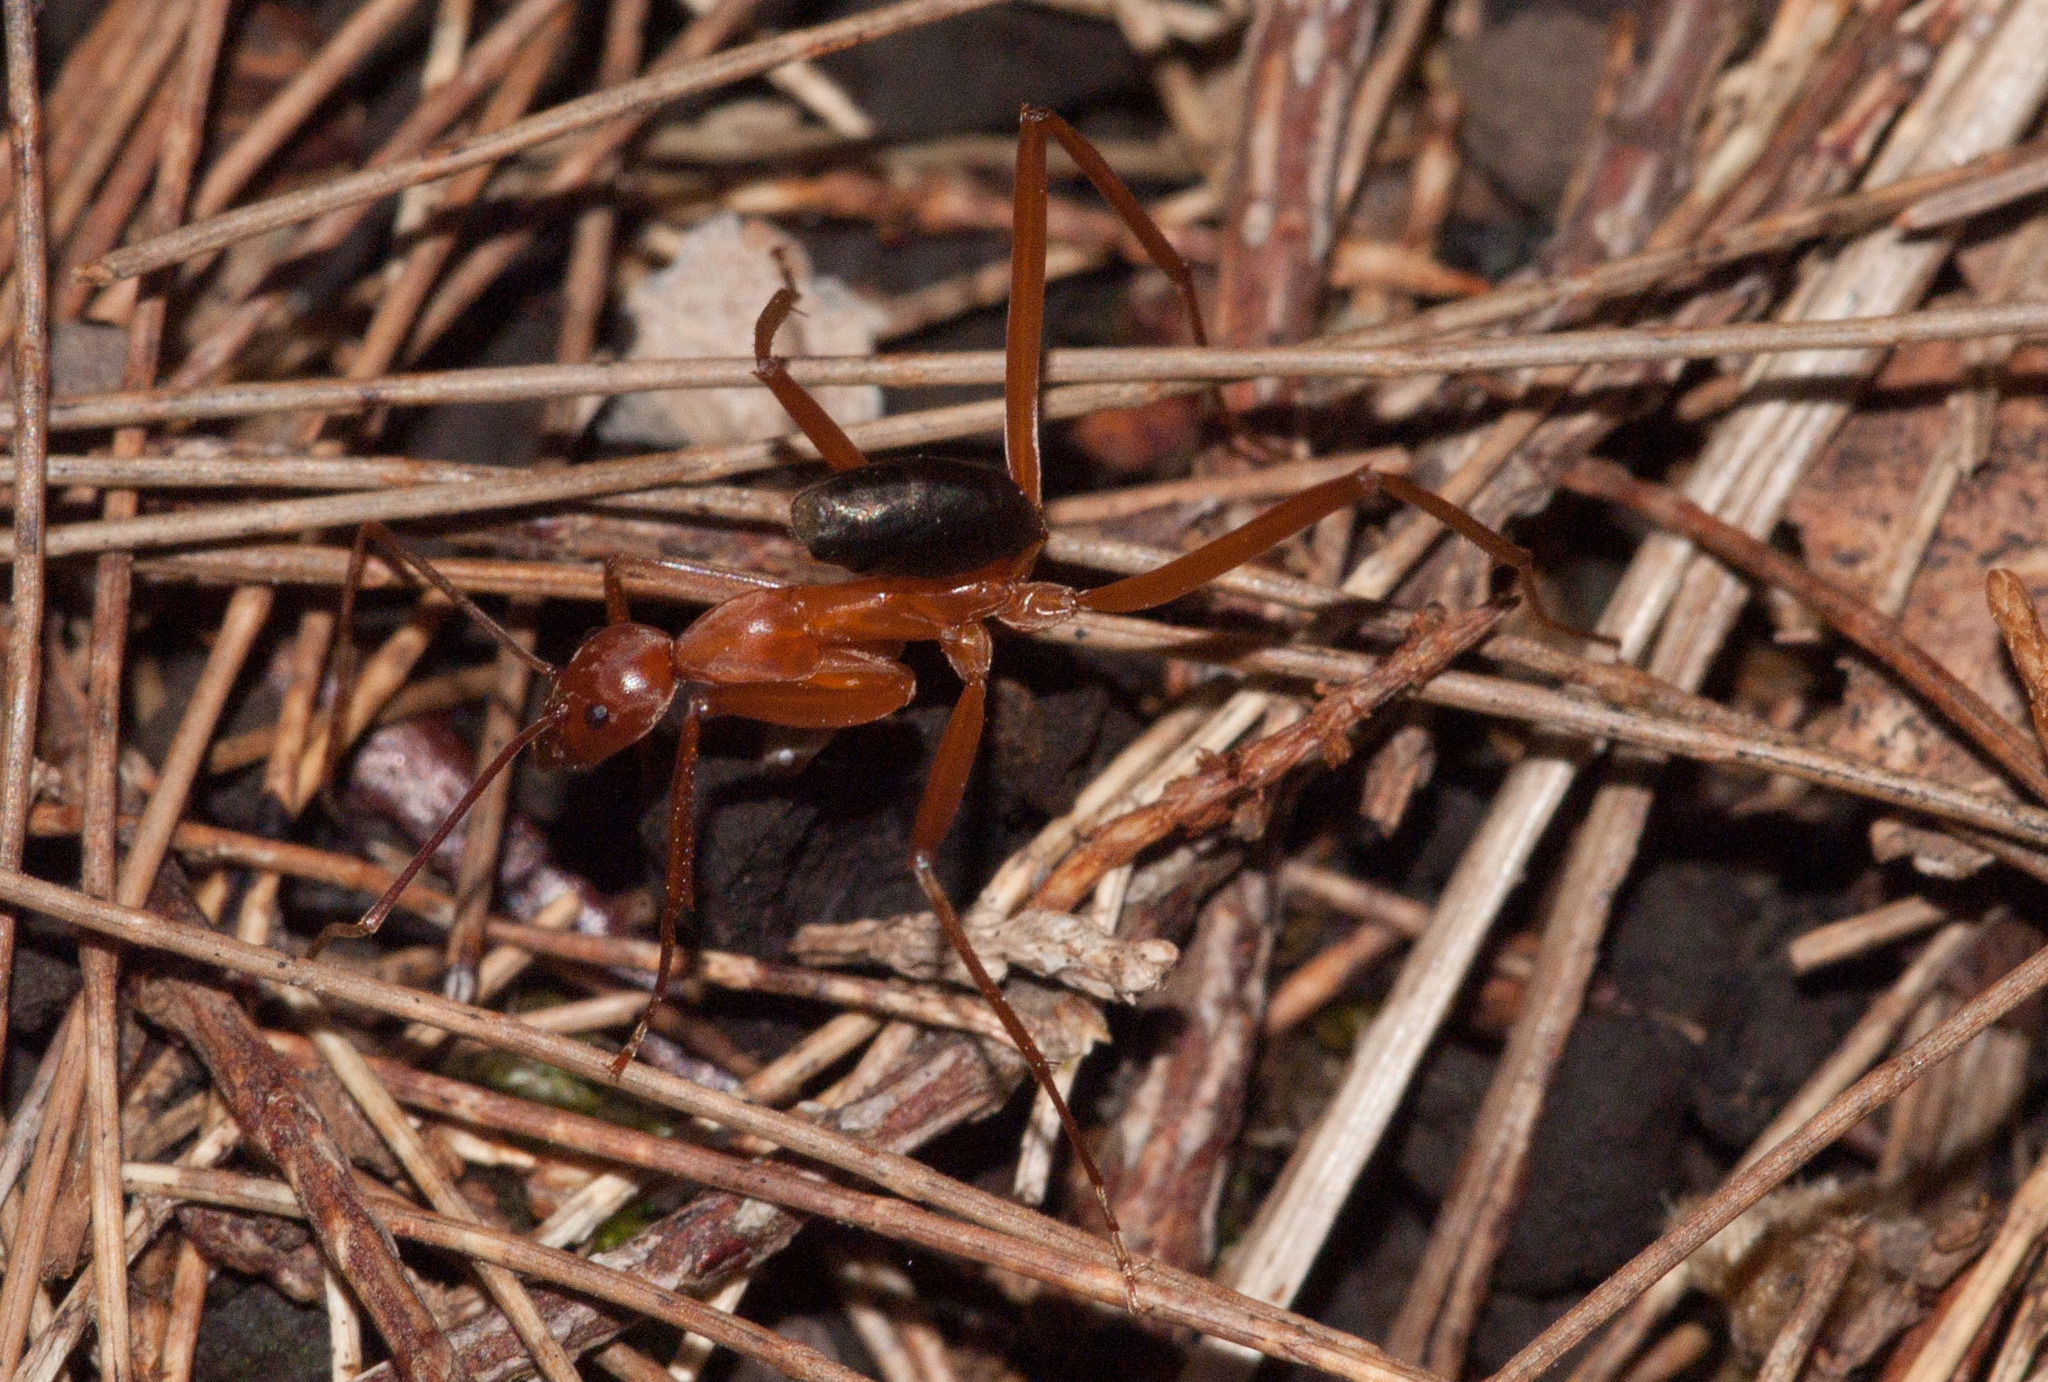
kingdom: Animalia
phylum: Arthropoda
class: Insecta
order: Hymenoptera
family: Formicidae
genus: Leptomyrmex
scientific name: Leptomyrmex nigriventris
